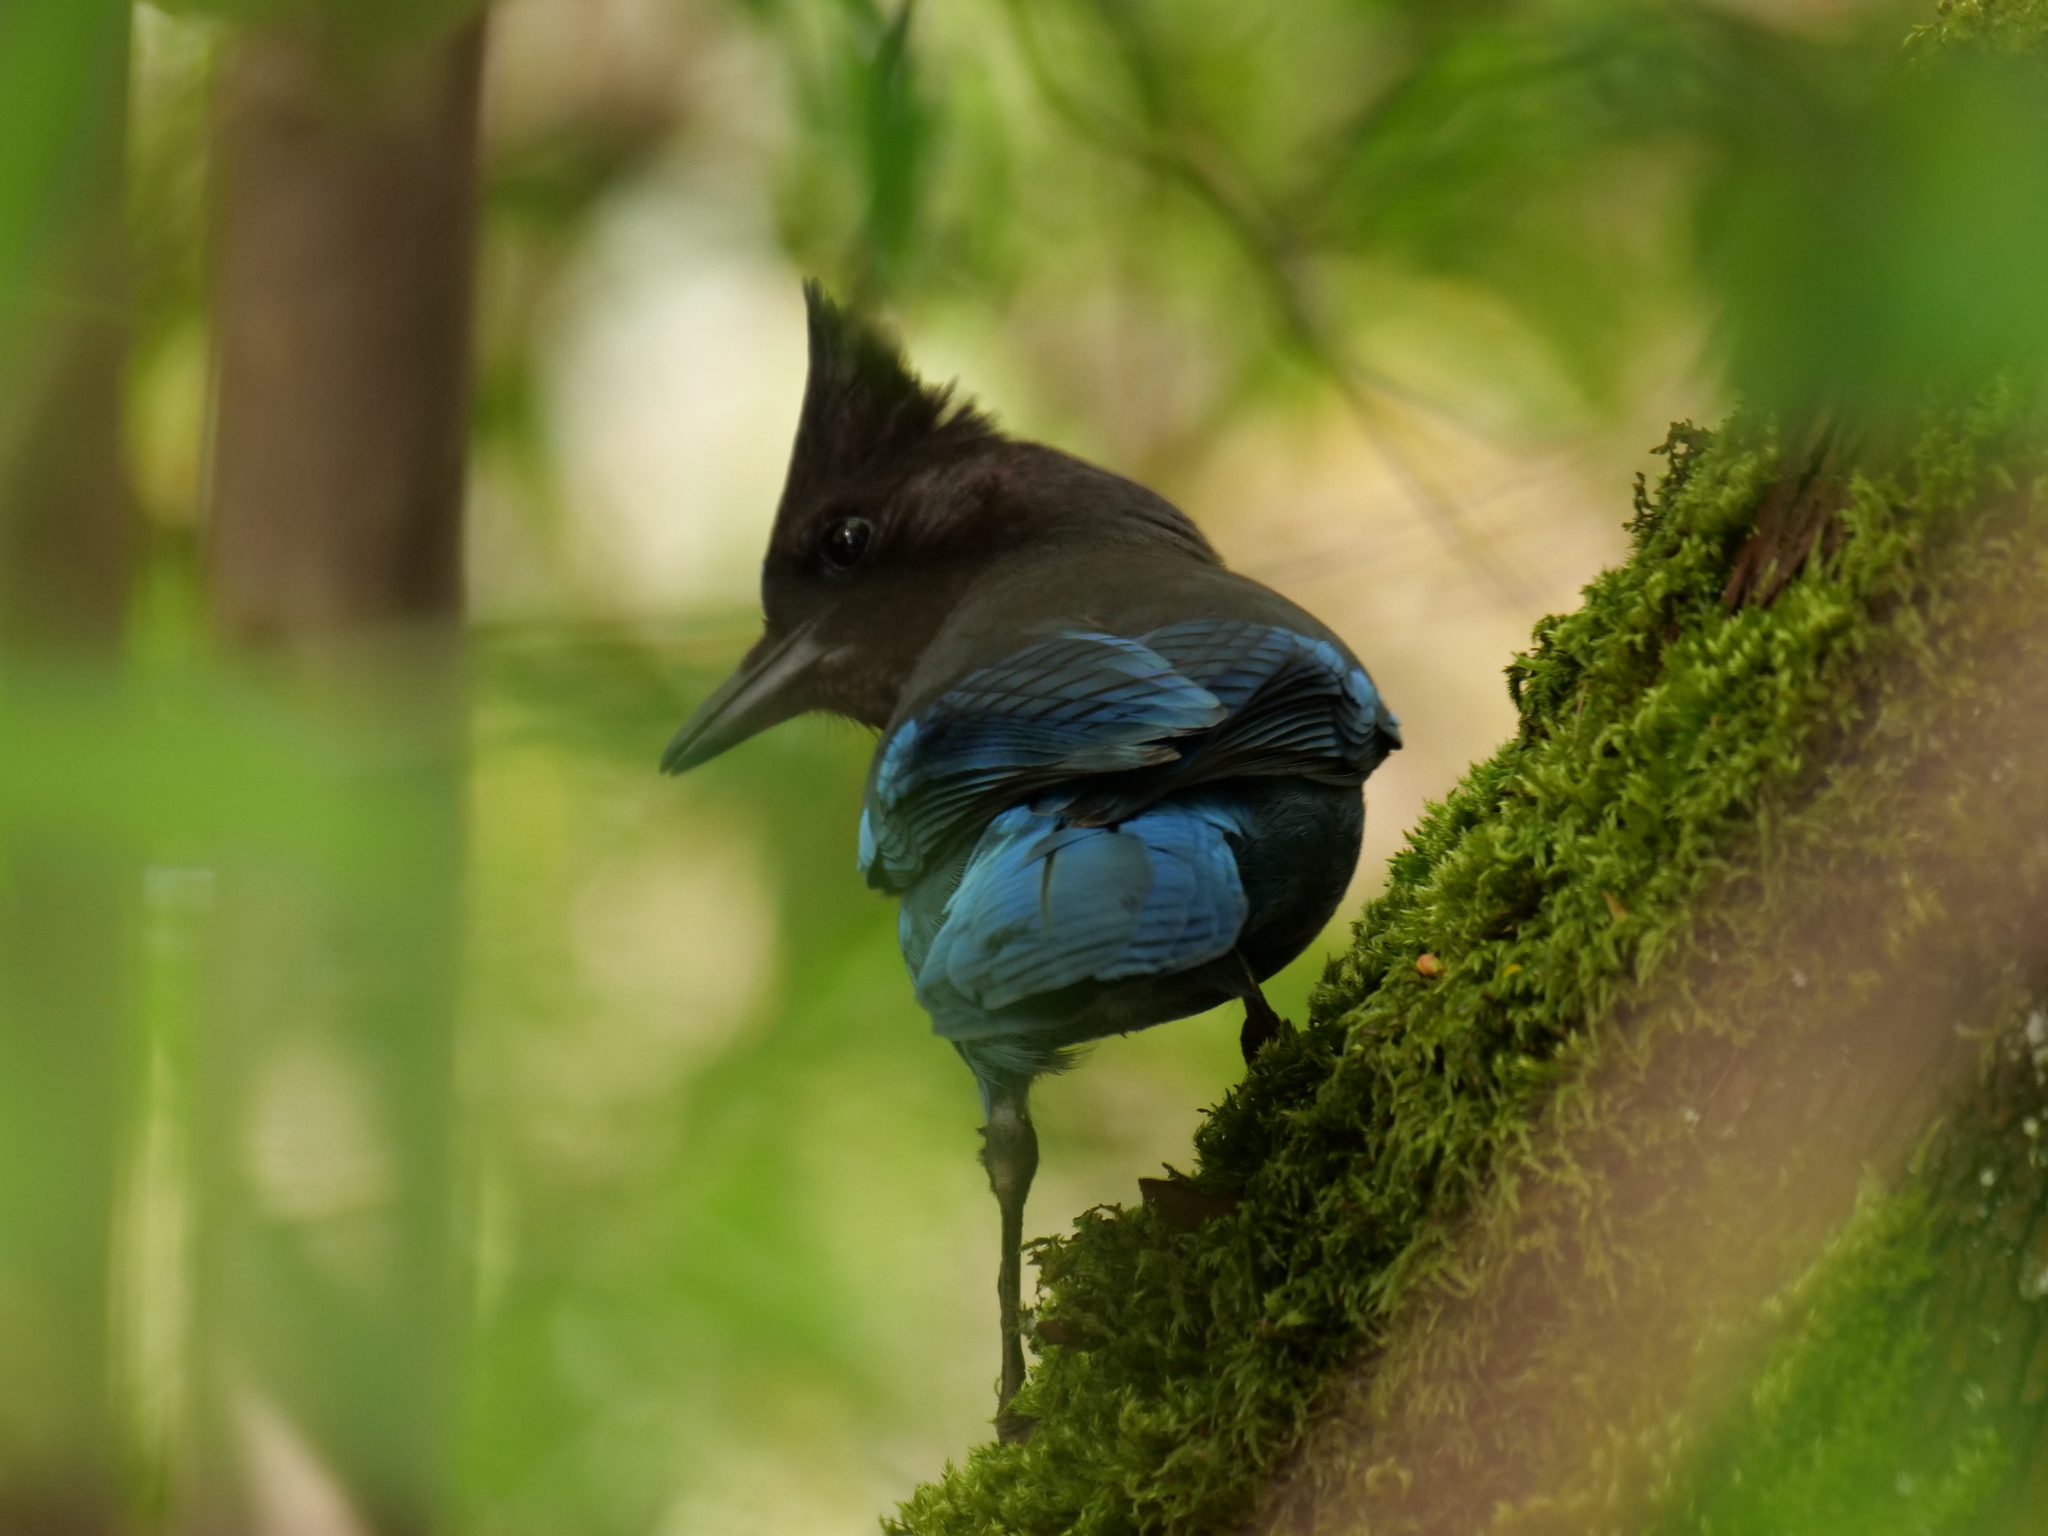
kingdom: Animalia
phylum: Chordata
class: Aves
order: Passeriformes
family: Corvidae
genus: Cyanocitta
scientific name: Cyanocitta stelleri
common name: Steller's jay
